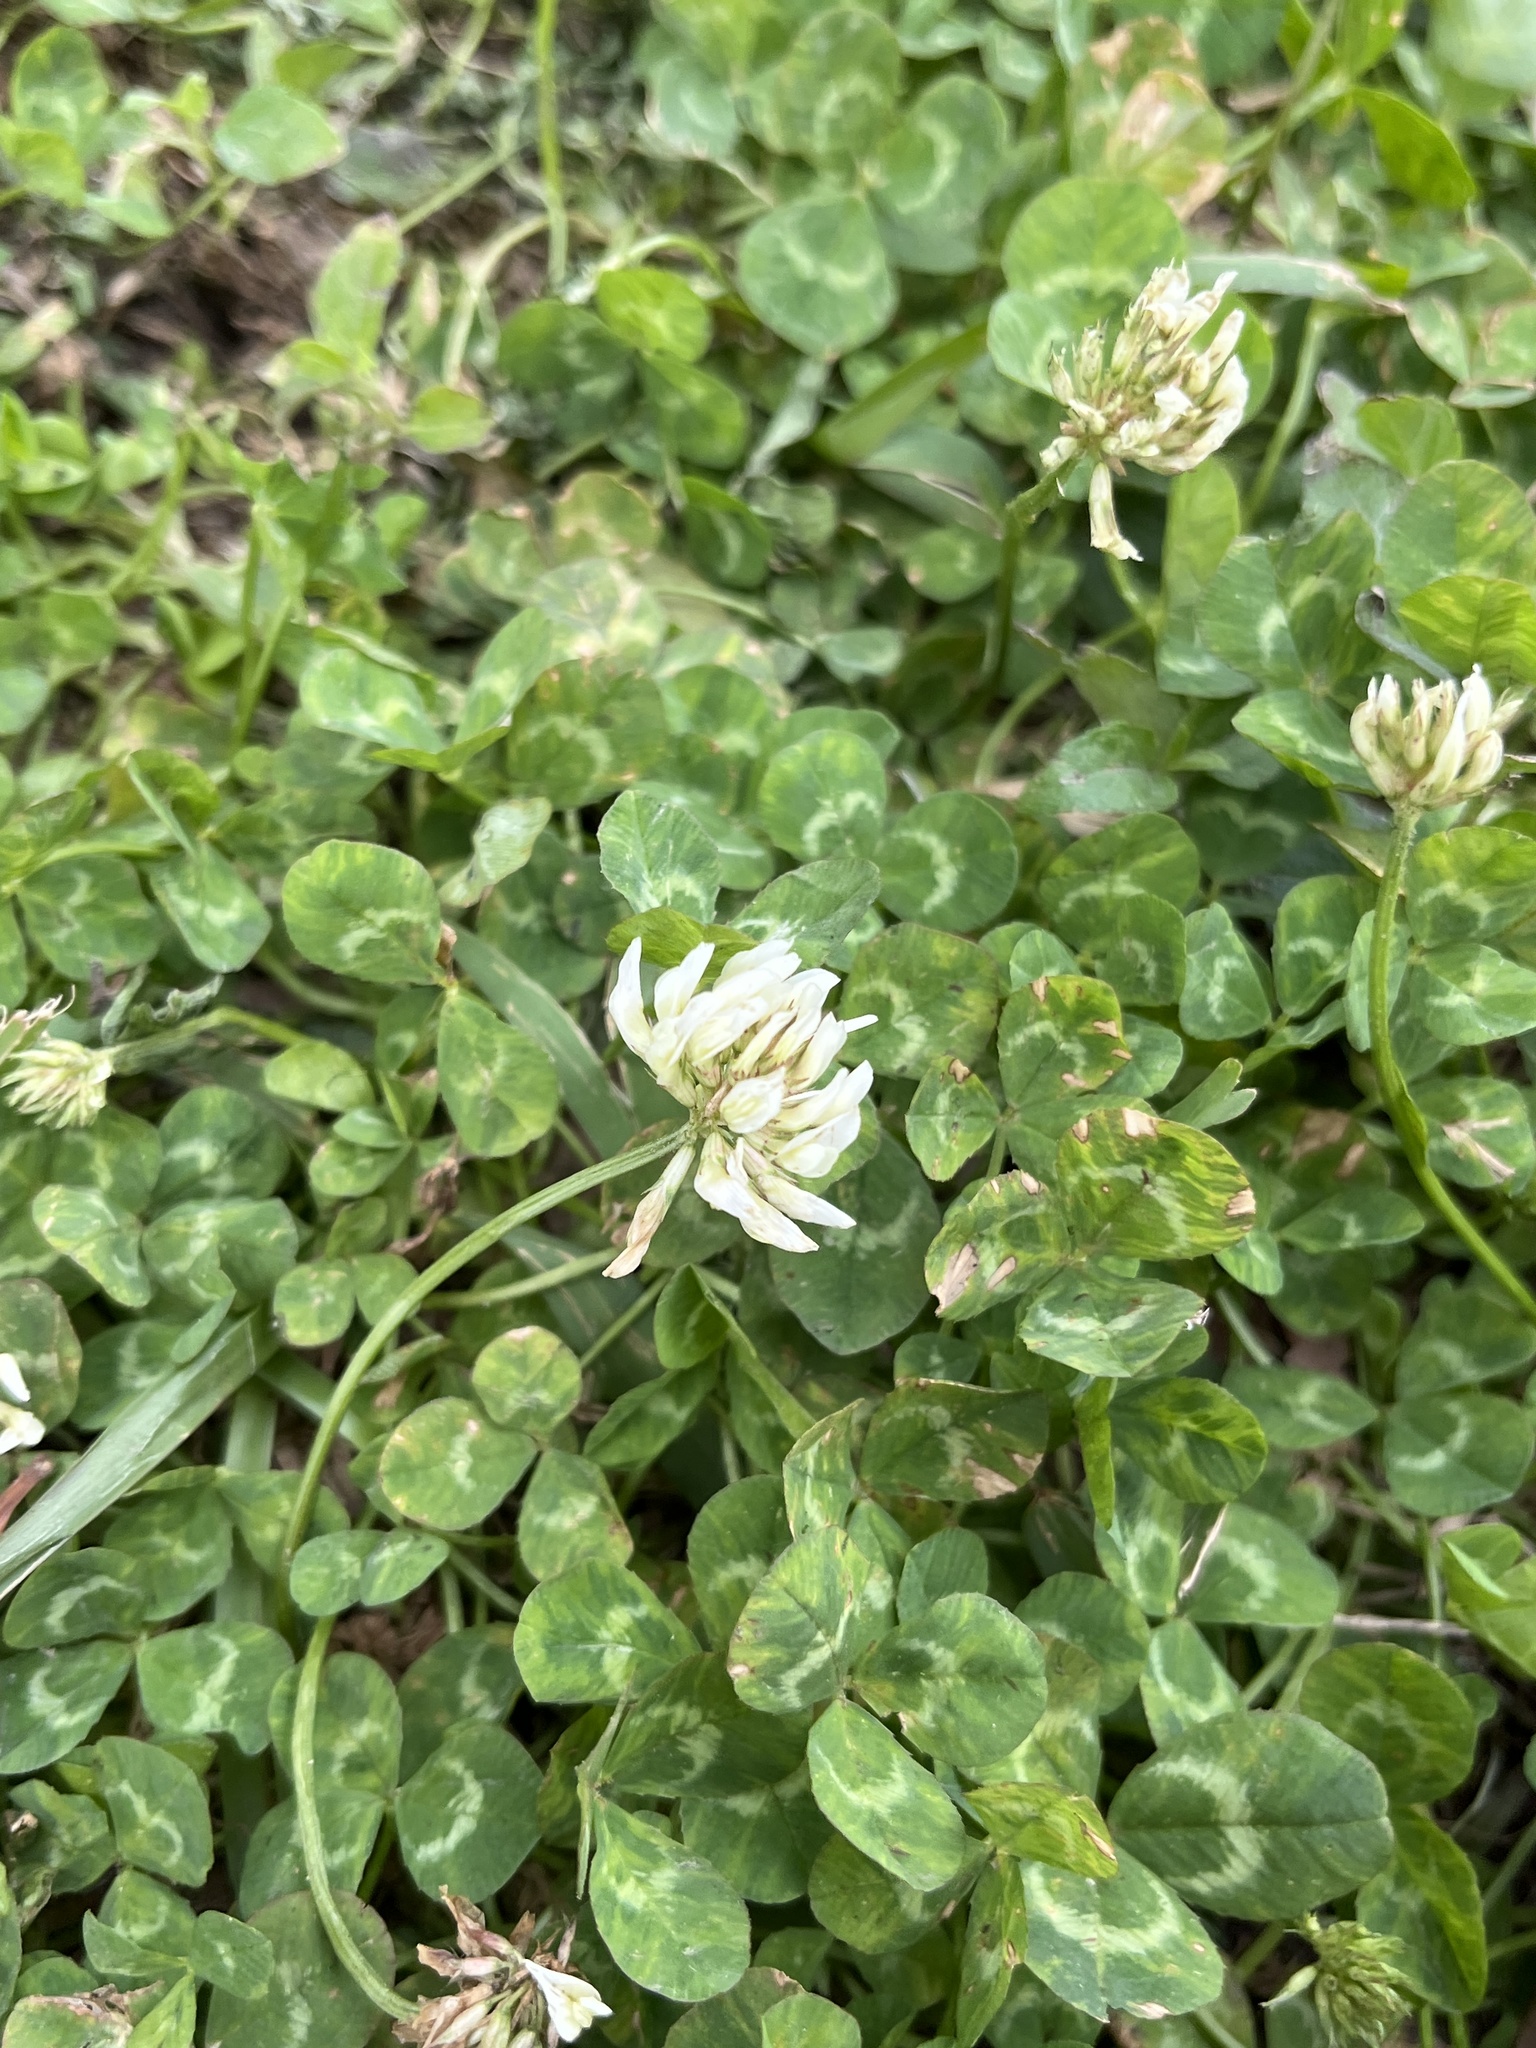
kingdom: Plantae
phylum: Tracheophyta
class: Magnoliopsida
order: Fabales
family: Fabaceae
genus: Trifolium
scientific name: Trifolium repens
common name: White clover
